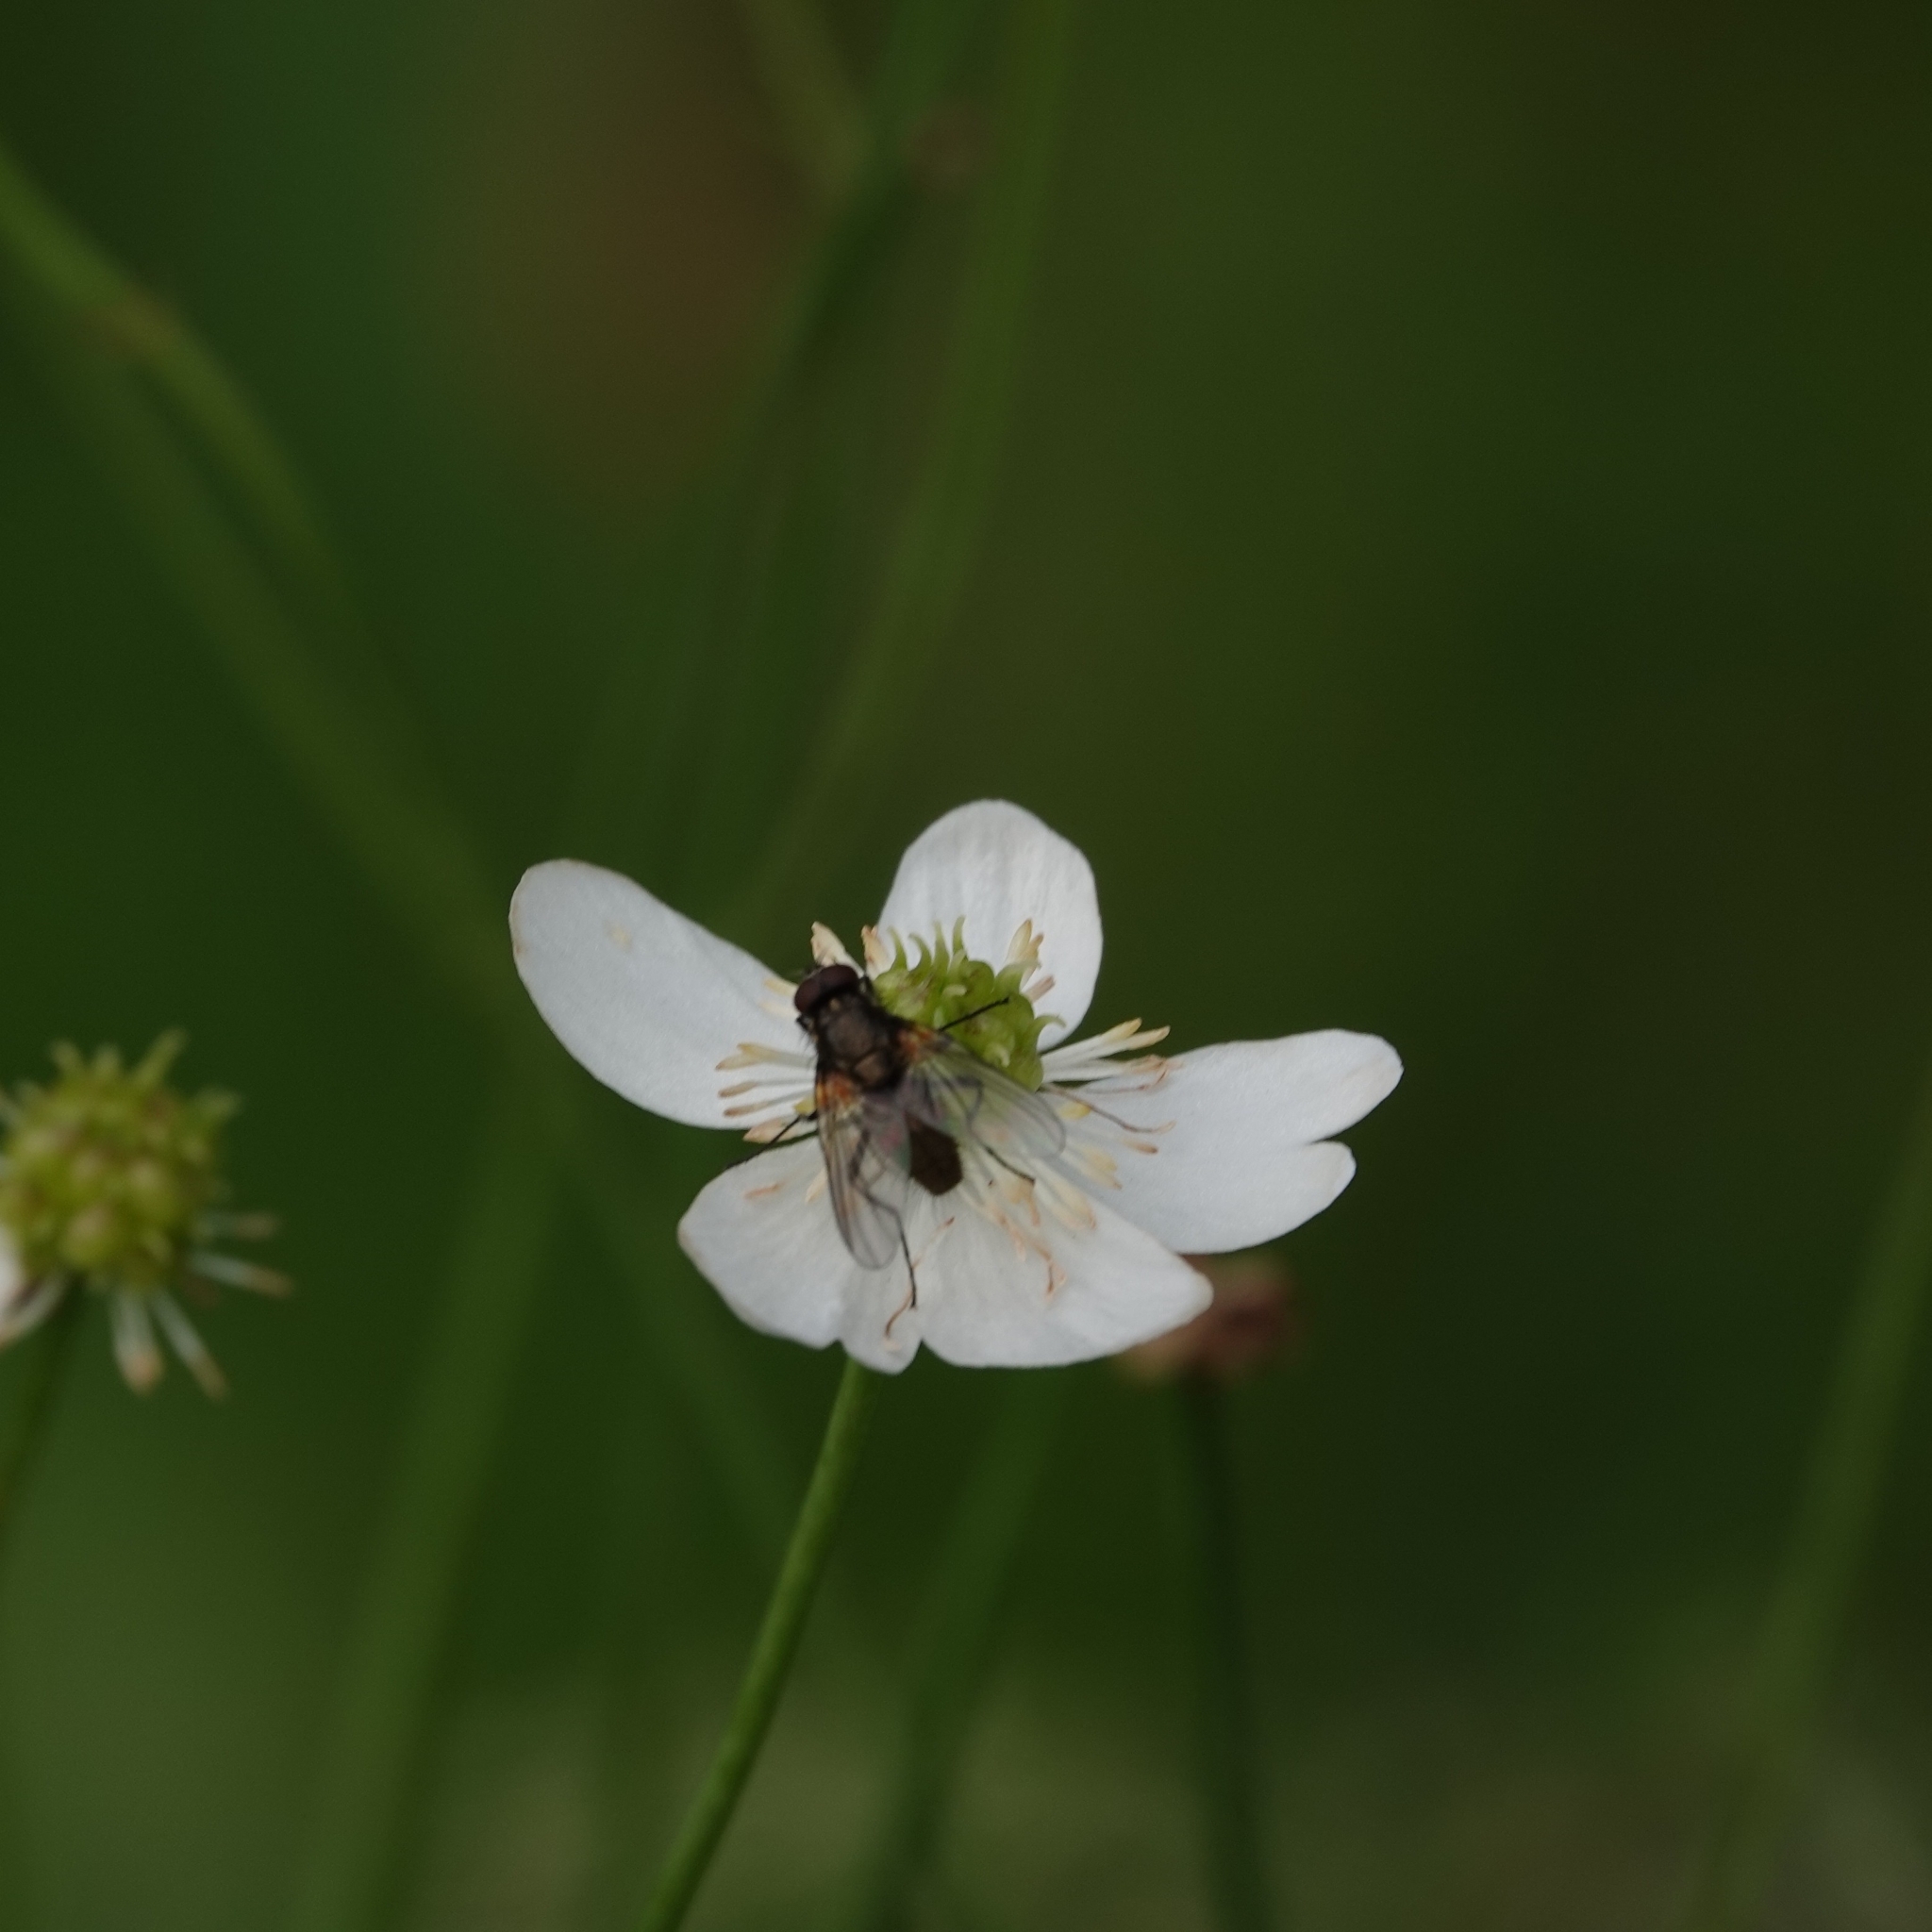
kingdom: Plantae
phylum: Tracheophyta
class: Magnoliopsida
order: Ranunculales
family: Ranunculaceae
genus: Ranunculus
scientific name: Ranunculus platanifolius
